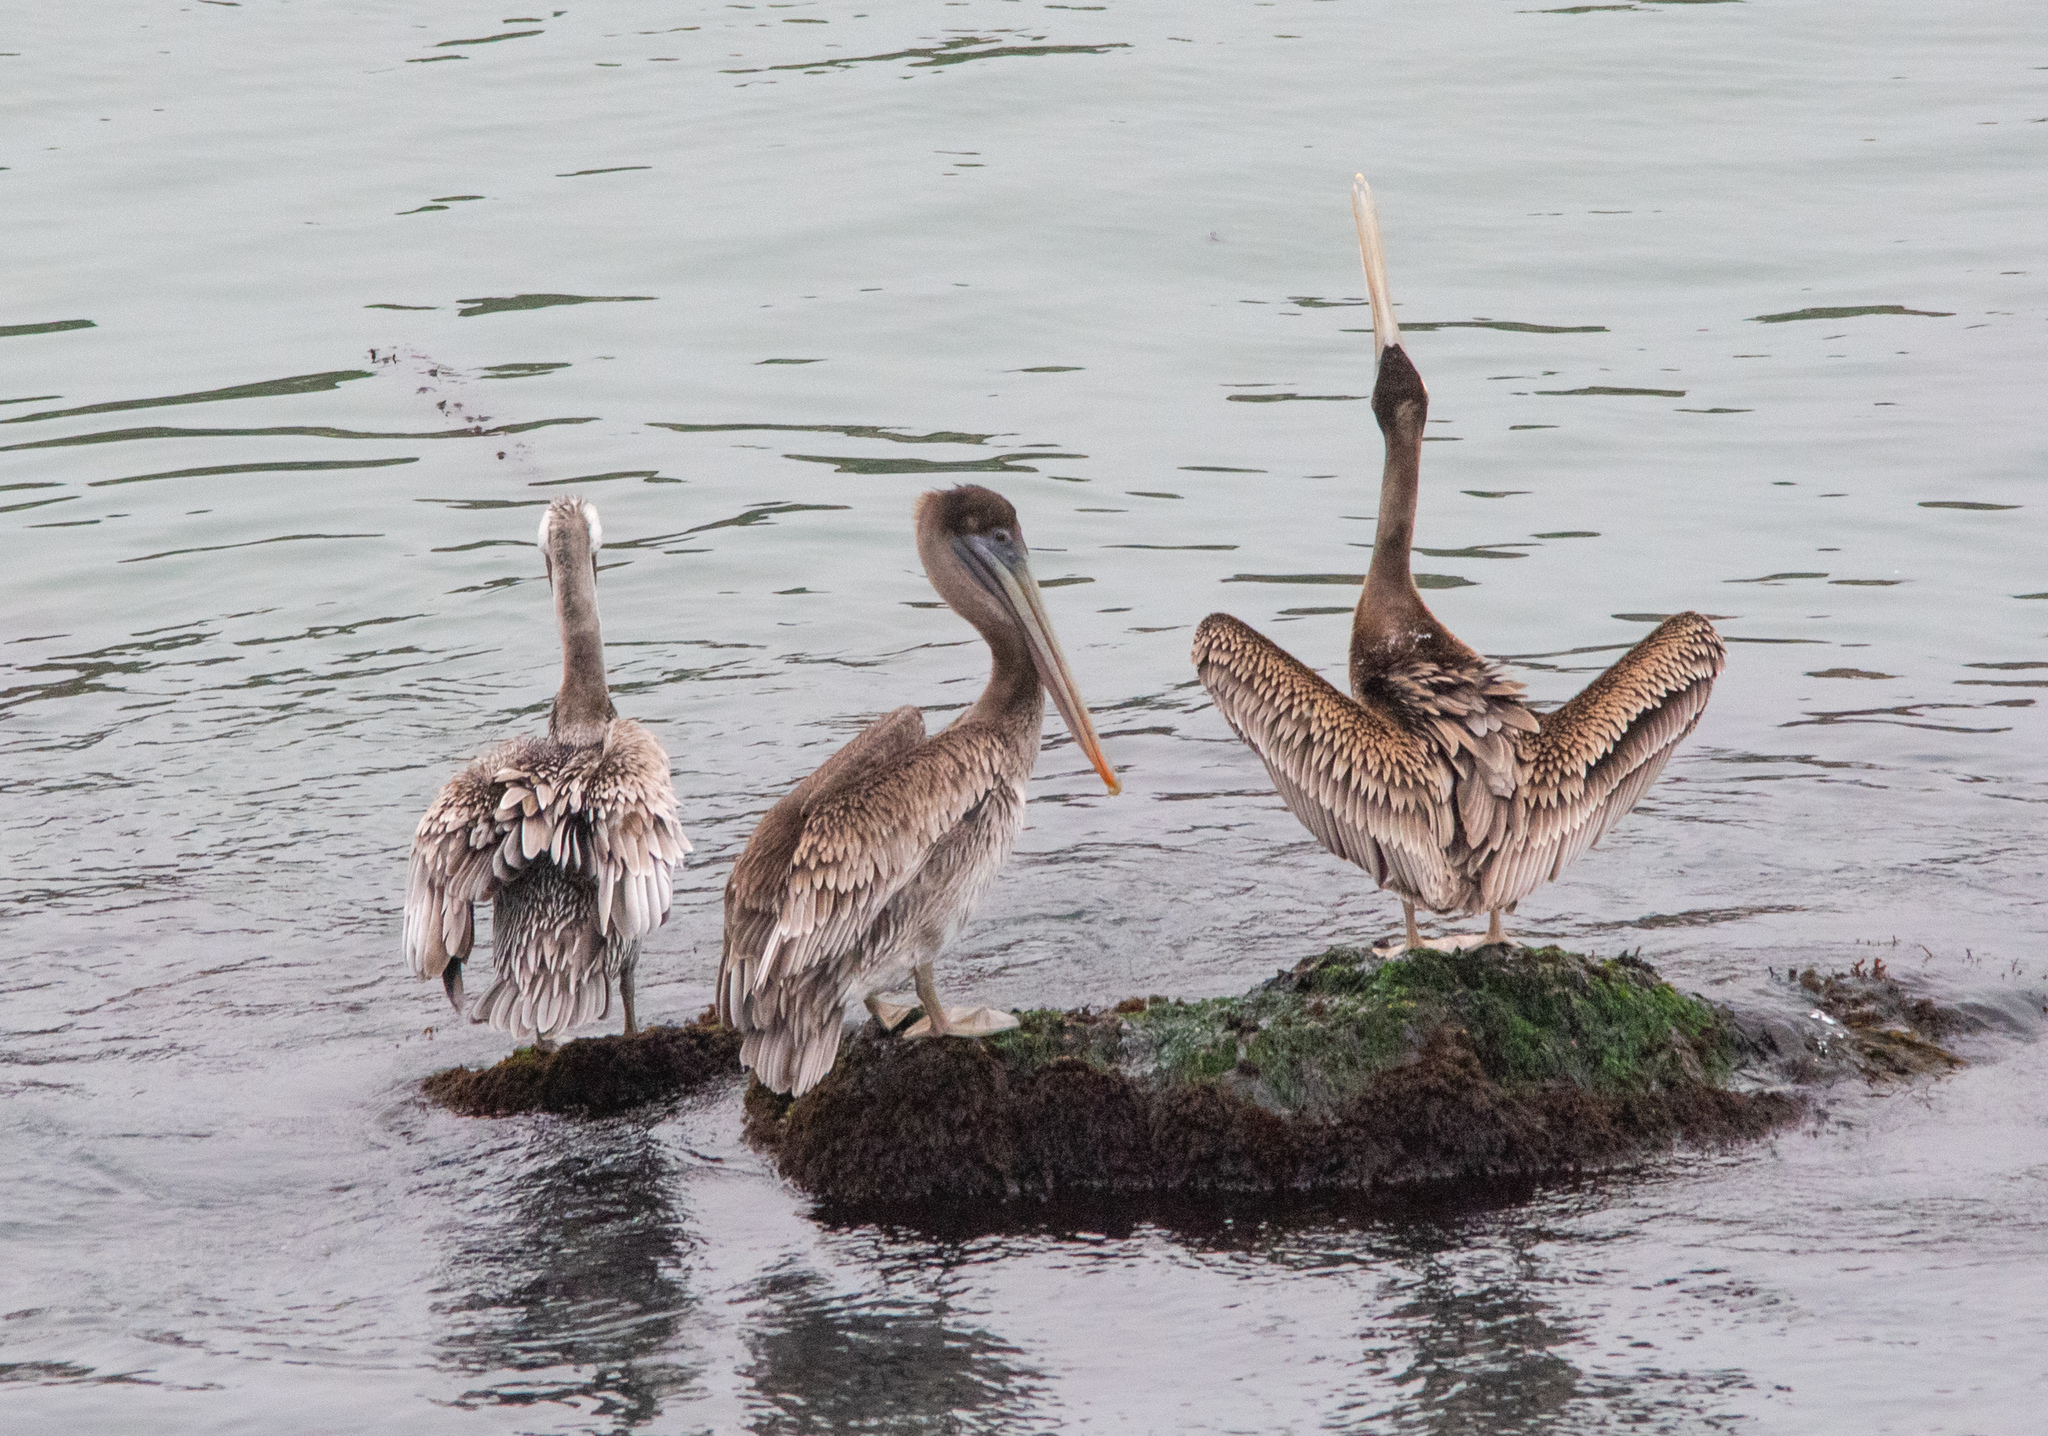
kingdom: Animalia
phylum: Chordata
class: Aves
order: Pelecaniformes
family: Pelecanidae
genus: Pelecanus
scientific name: Pelecanus occidentalis
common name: Brown pelican
